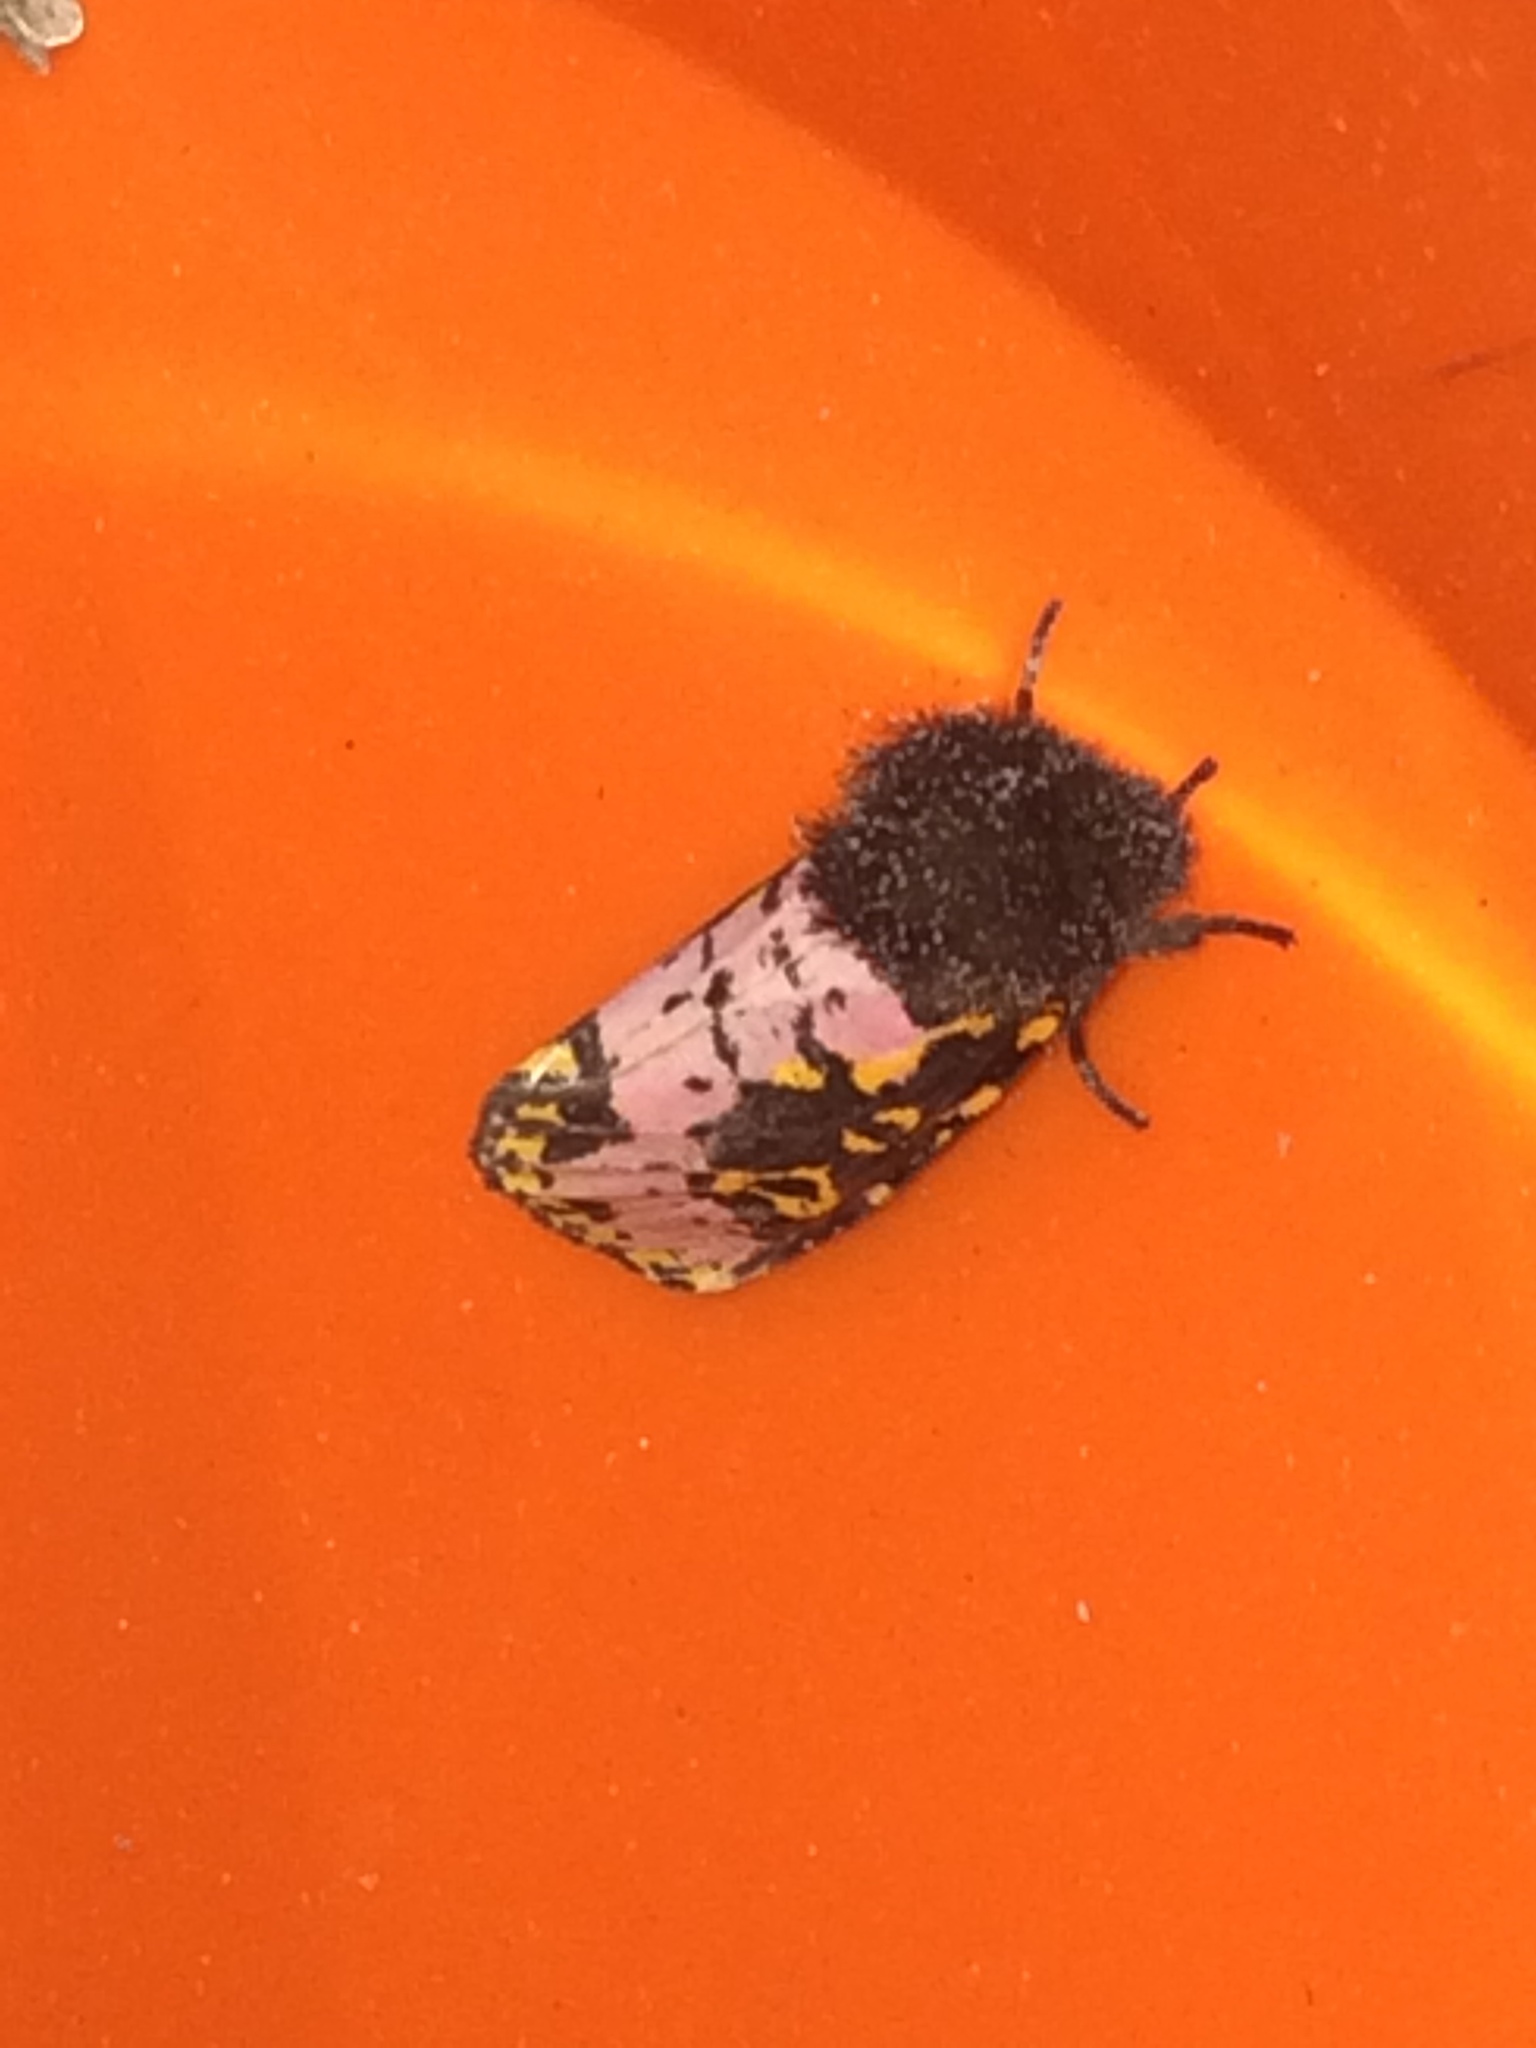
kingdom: Animalia
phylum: Arthropoda
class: Insecta
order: Lepidoptera
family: Noctuidae
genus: Xanthopastis
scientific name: Xanthopastis regnatrix
